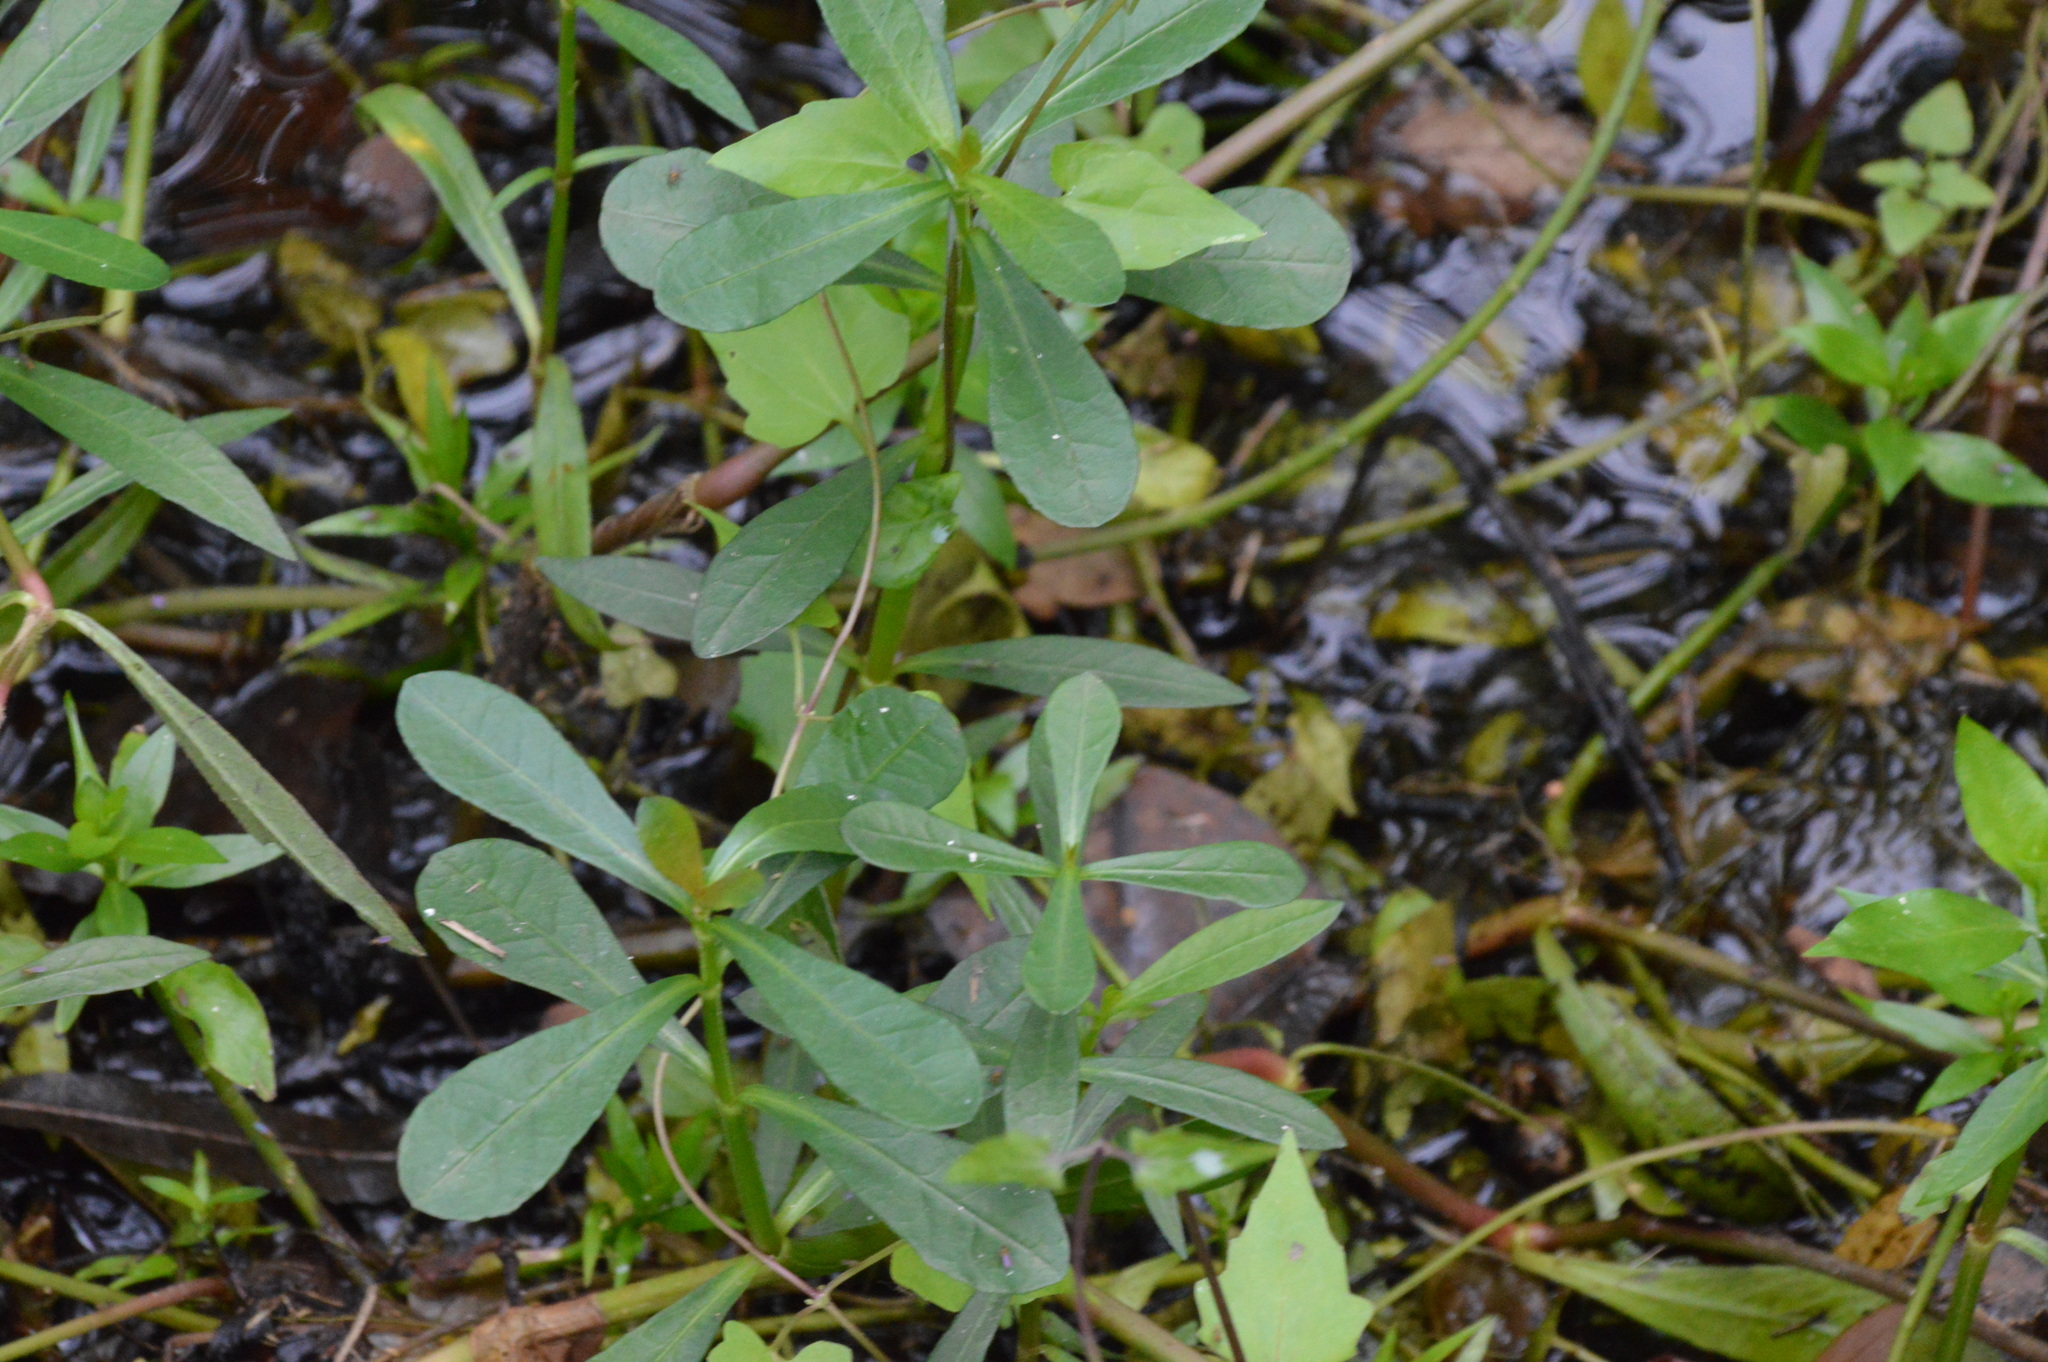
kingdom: Plantae
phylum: Tracheophyta
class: Magnoliopsida
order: Caryophyllales
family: Amaranthaceae
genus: Alternanthera
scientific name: Alternanthera philoxeroides
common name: Alligatorweed
